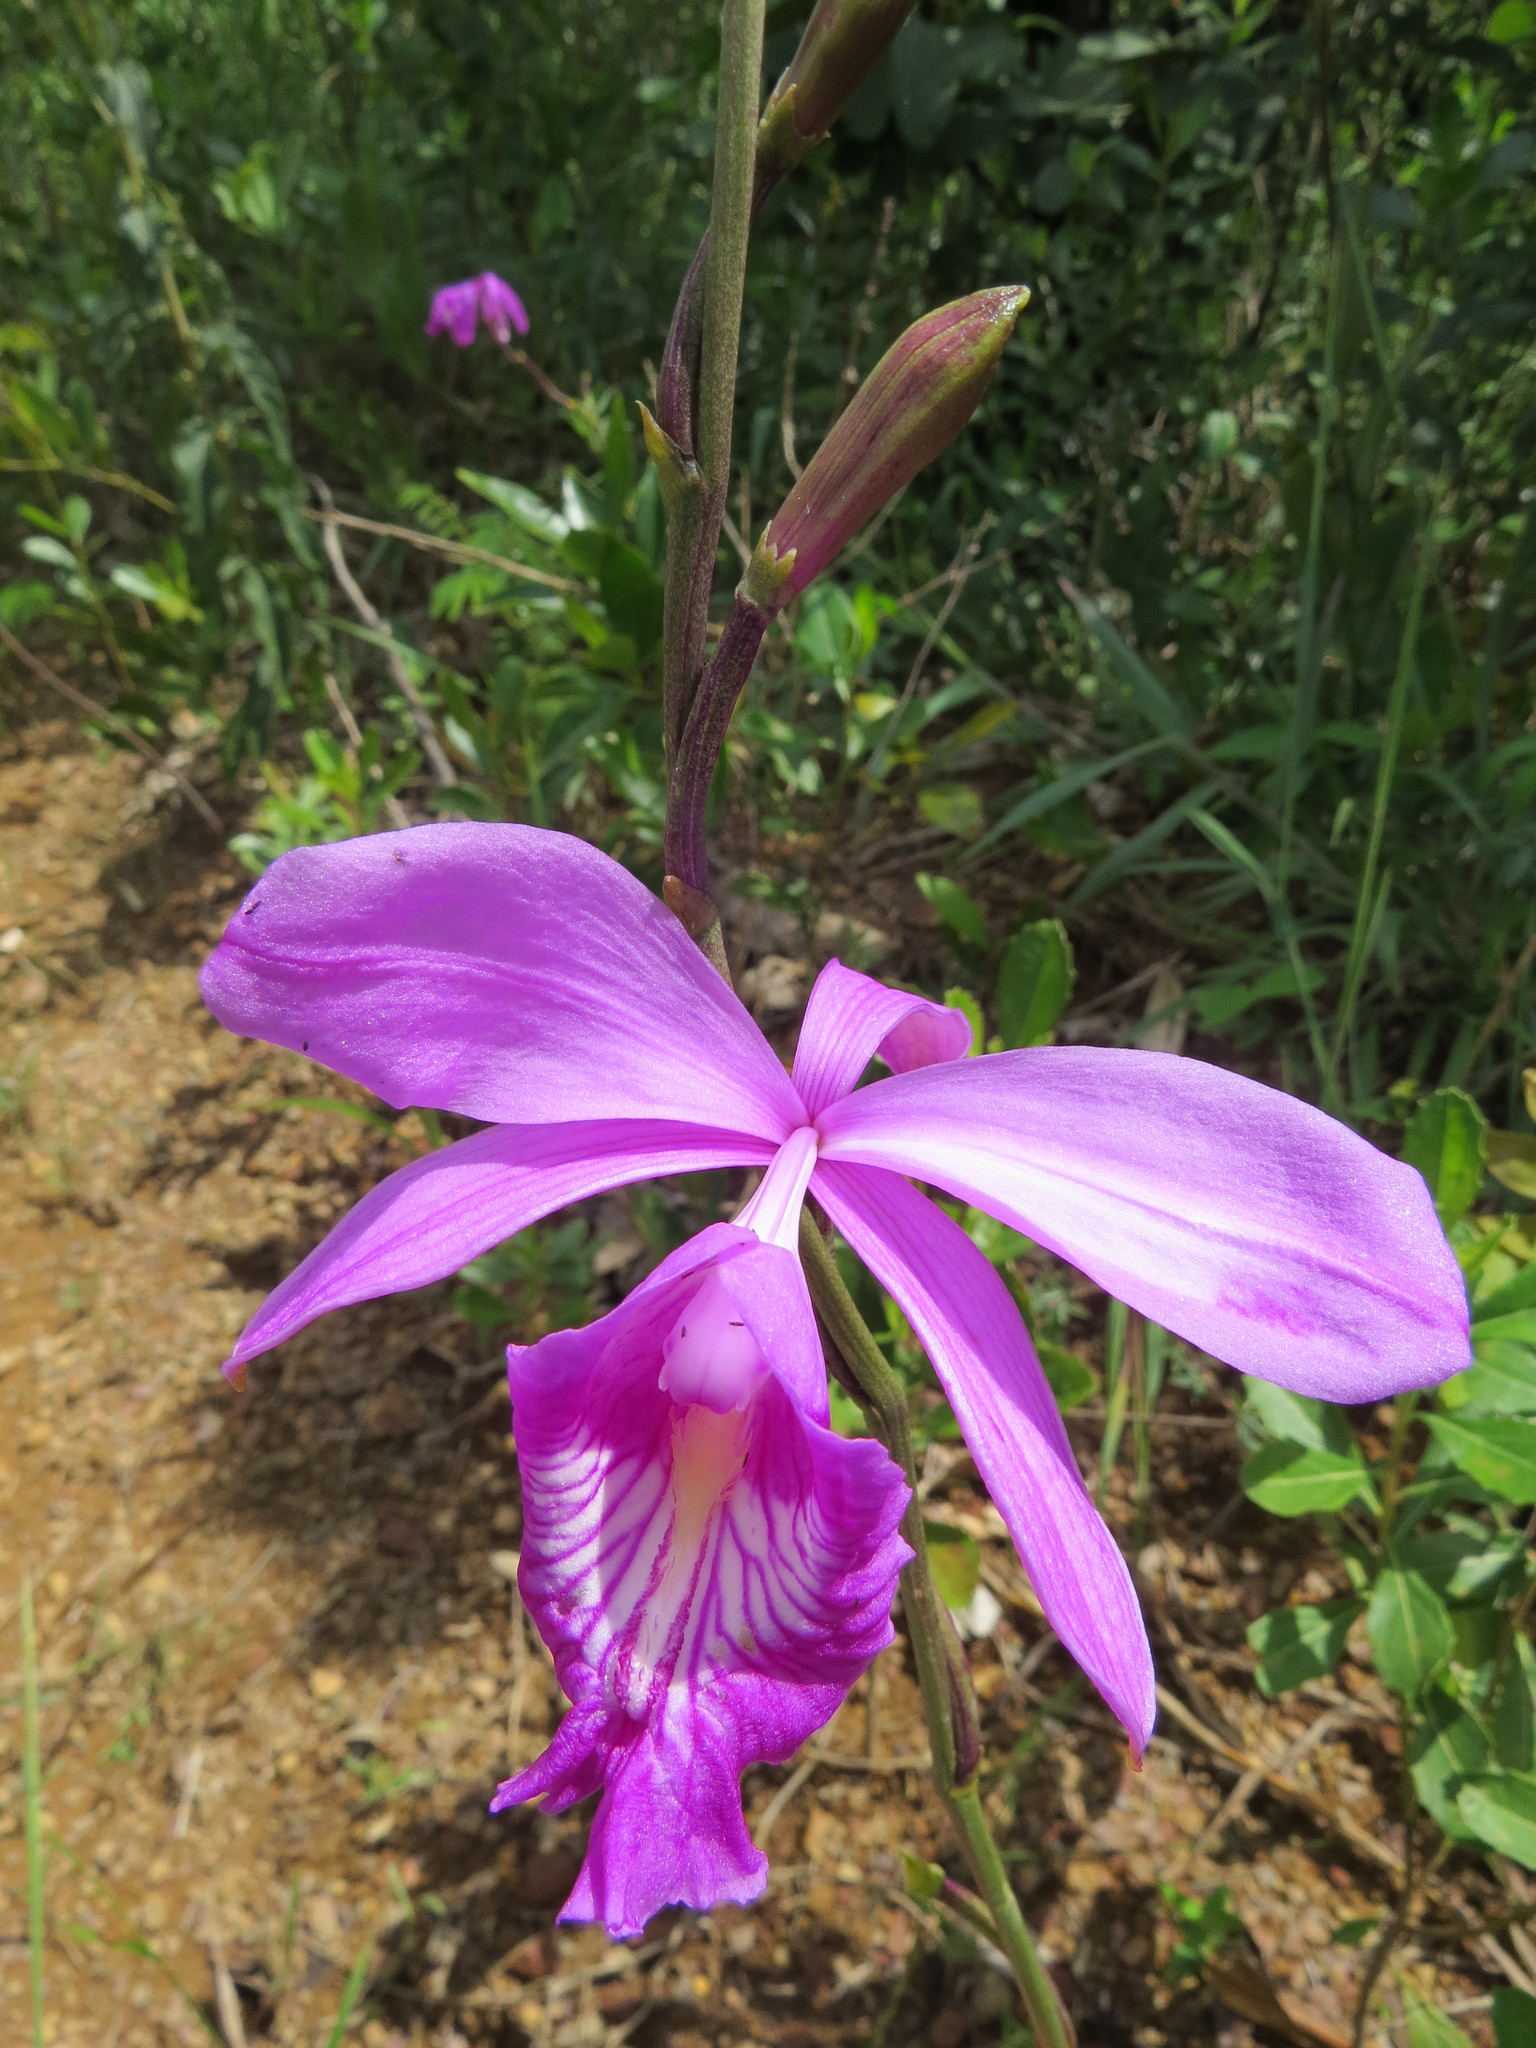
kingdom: Plantae
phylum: Tracheophyta
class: Liliopsida
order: Asparagales
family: Orchidaceae
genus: Epistephium
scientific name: Epistephium sclerophyllum
